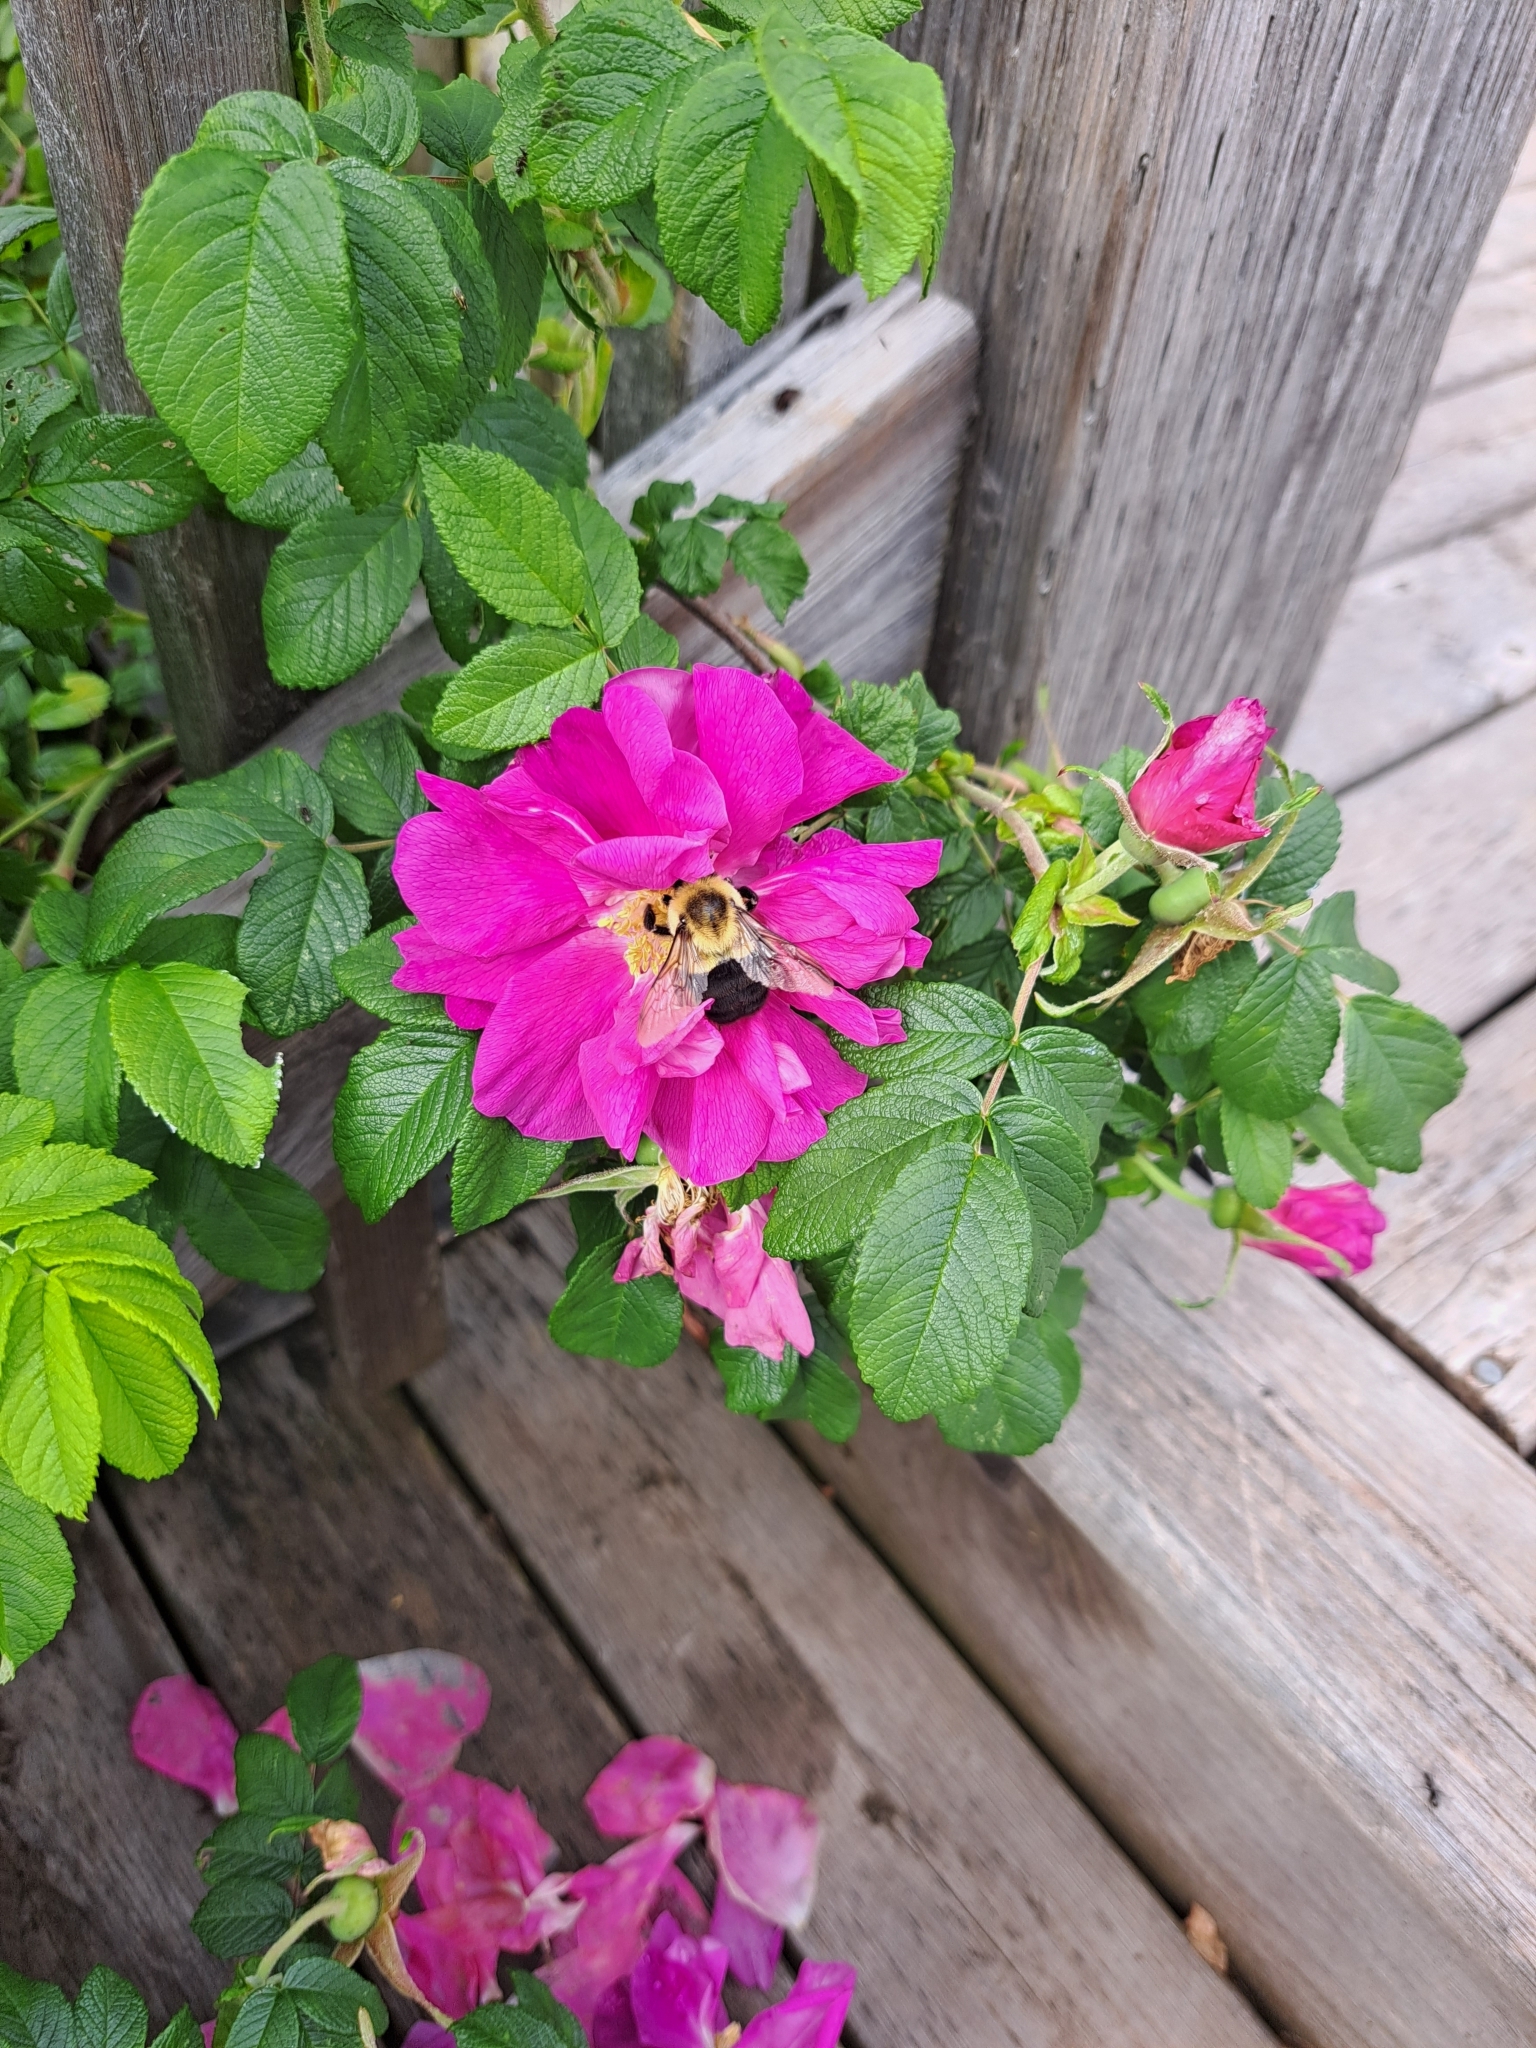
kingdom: Animalia
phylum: Arthropoda
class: Insecta
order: Hymenoptera
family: Apidae
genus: Bombus
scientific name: Bombus impatiens
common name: Common eastern bumble bee
